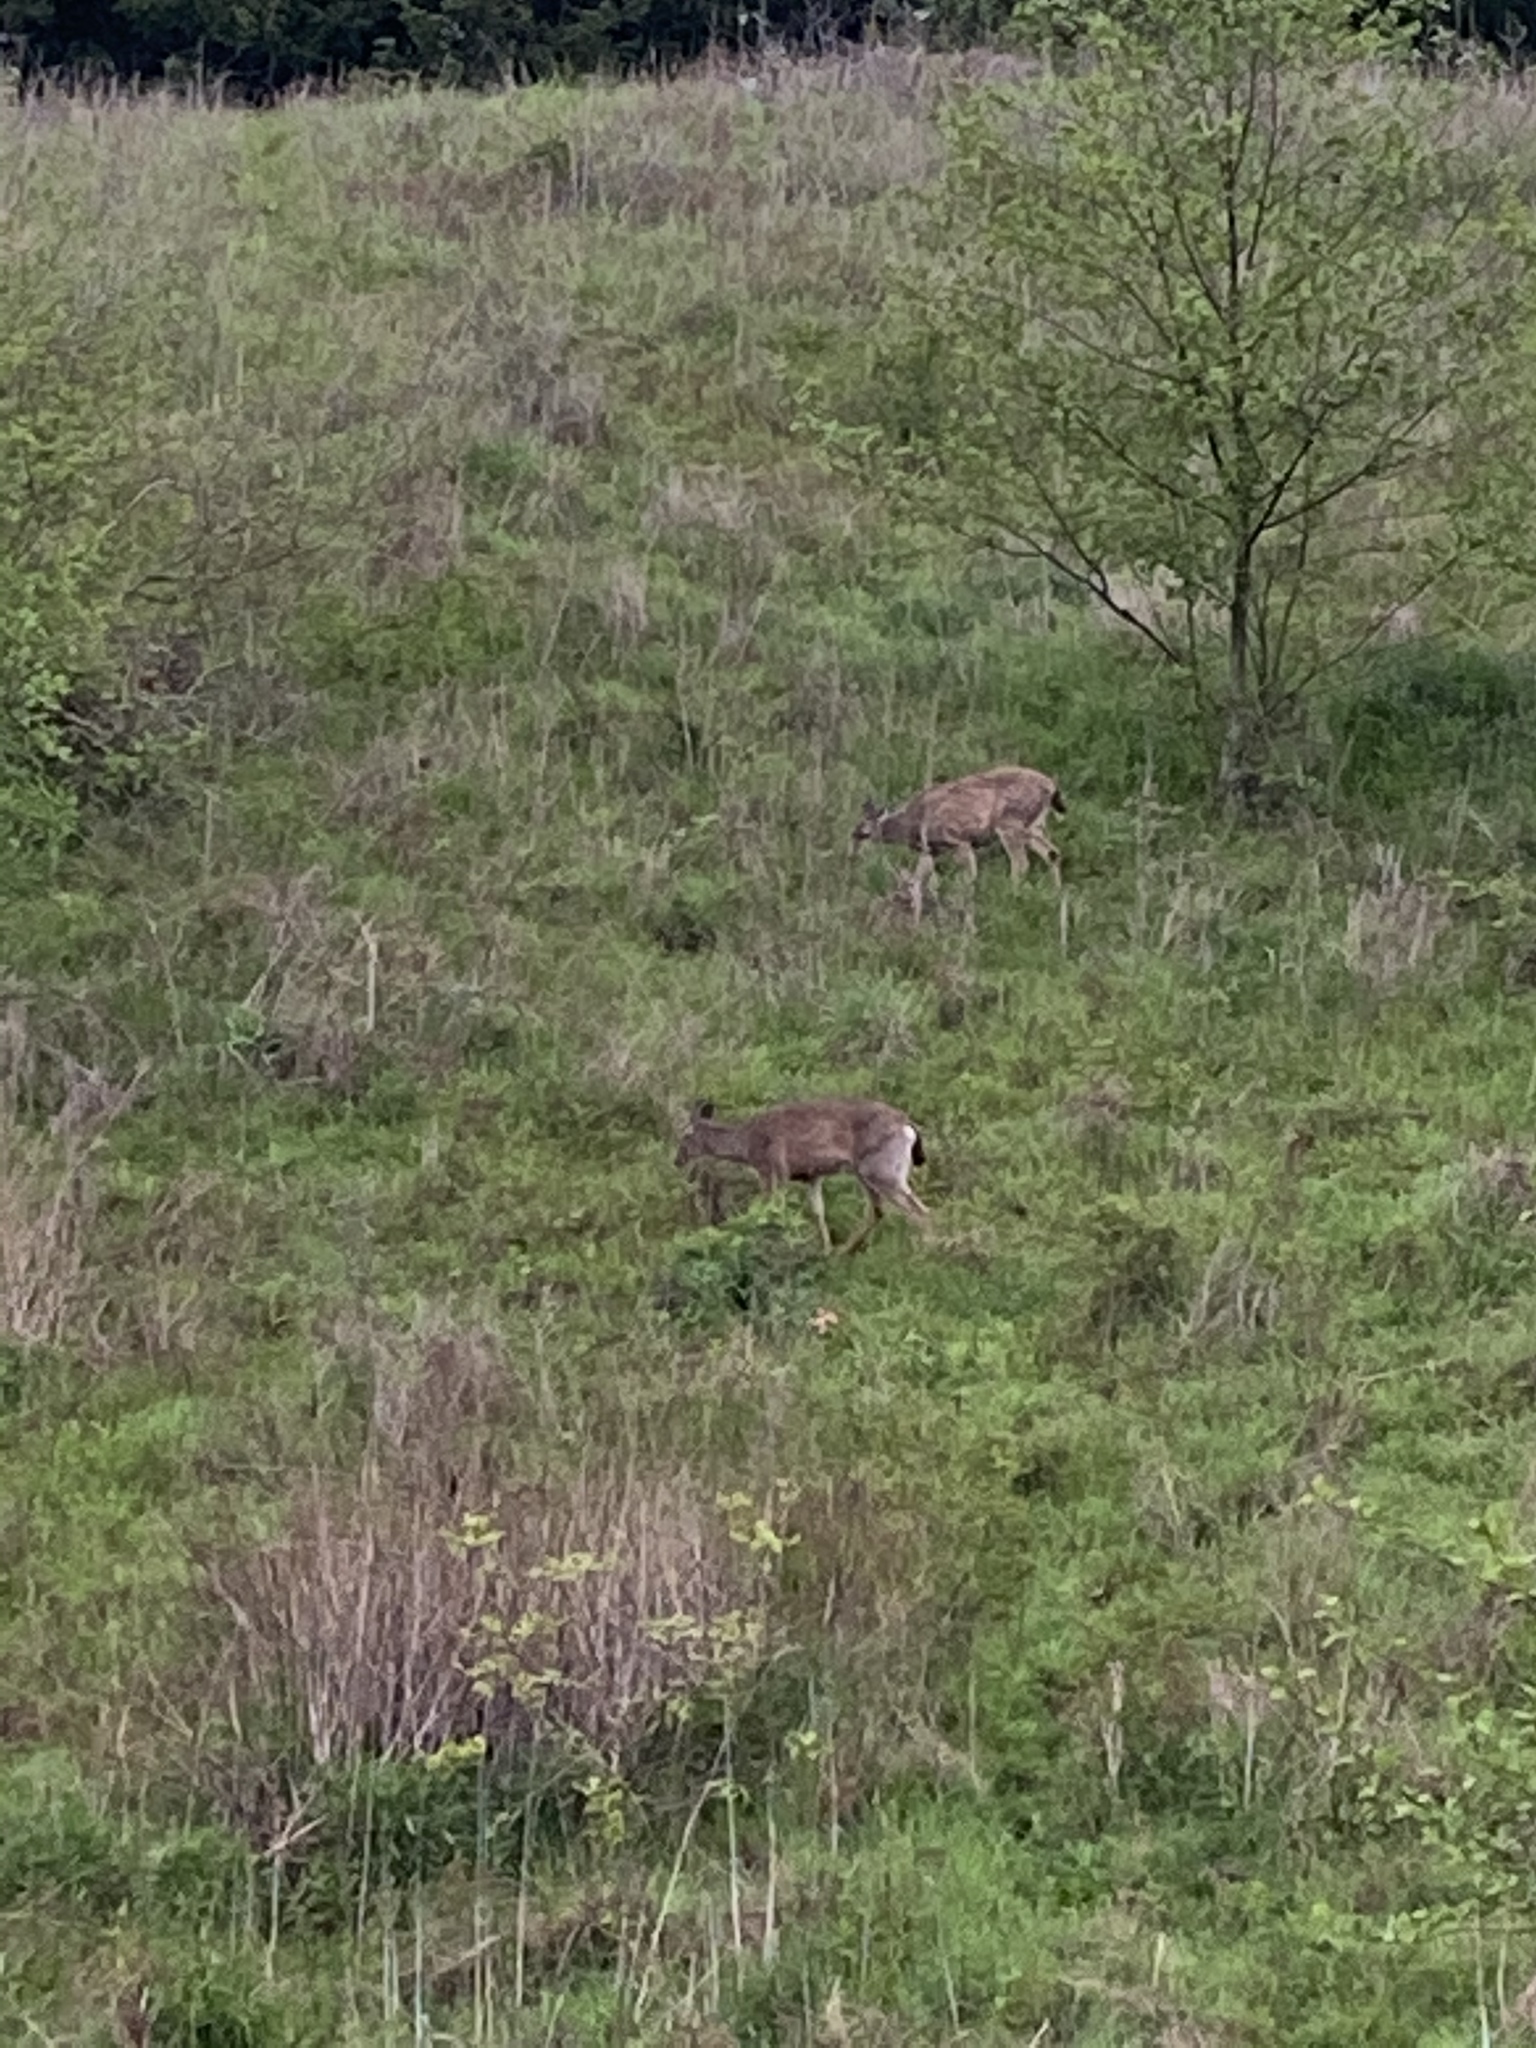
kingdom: Animalia
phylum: Chordata
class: Mammalia
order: Artiodactyla
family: Cervidae
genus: Odocoileus
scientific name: Odocoileus hemionus
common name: Mule deer
